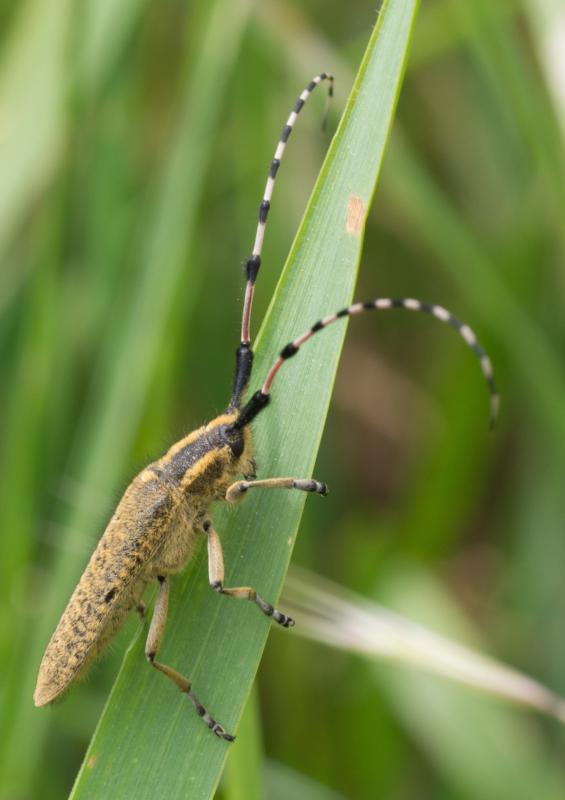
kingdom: Animalia
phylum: Arthropoda
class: Insecta
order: Coleoptera
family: Cerambycidae
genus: Agapanthia
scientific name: Agapanthia dahlii
